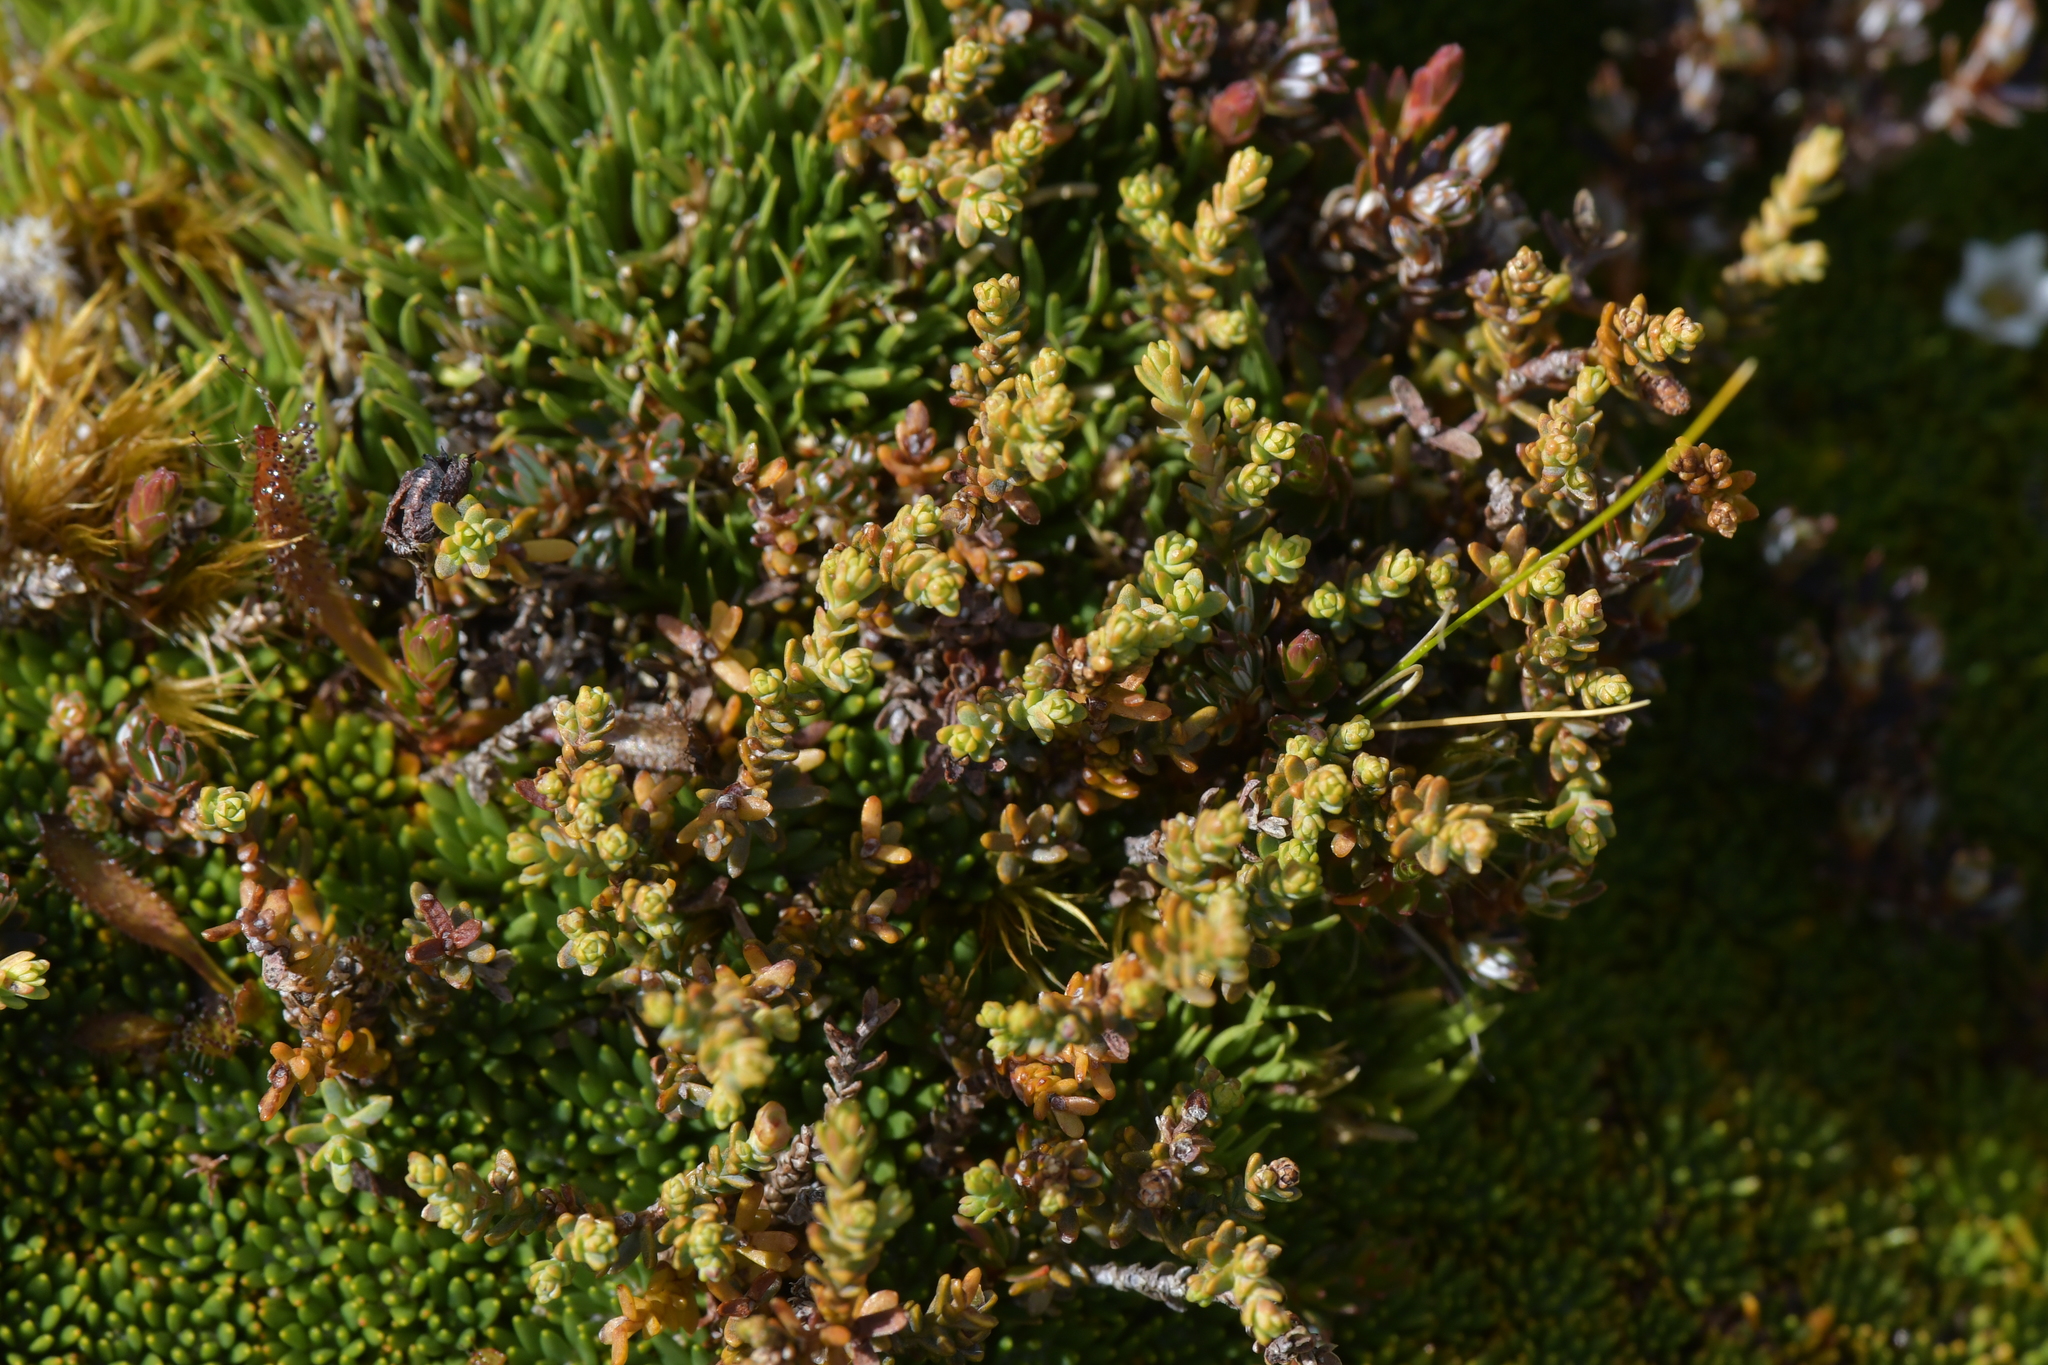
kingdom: Plantae
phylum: Tracheophyta
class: Pinopsida
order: Pinales
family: Podocarpaceae
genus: Lepidothamnus
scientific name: Lepidothamnus laxifolius
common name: Pygmy pine
